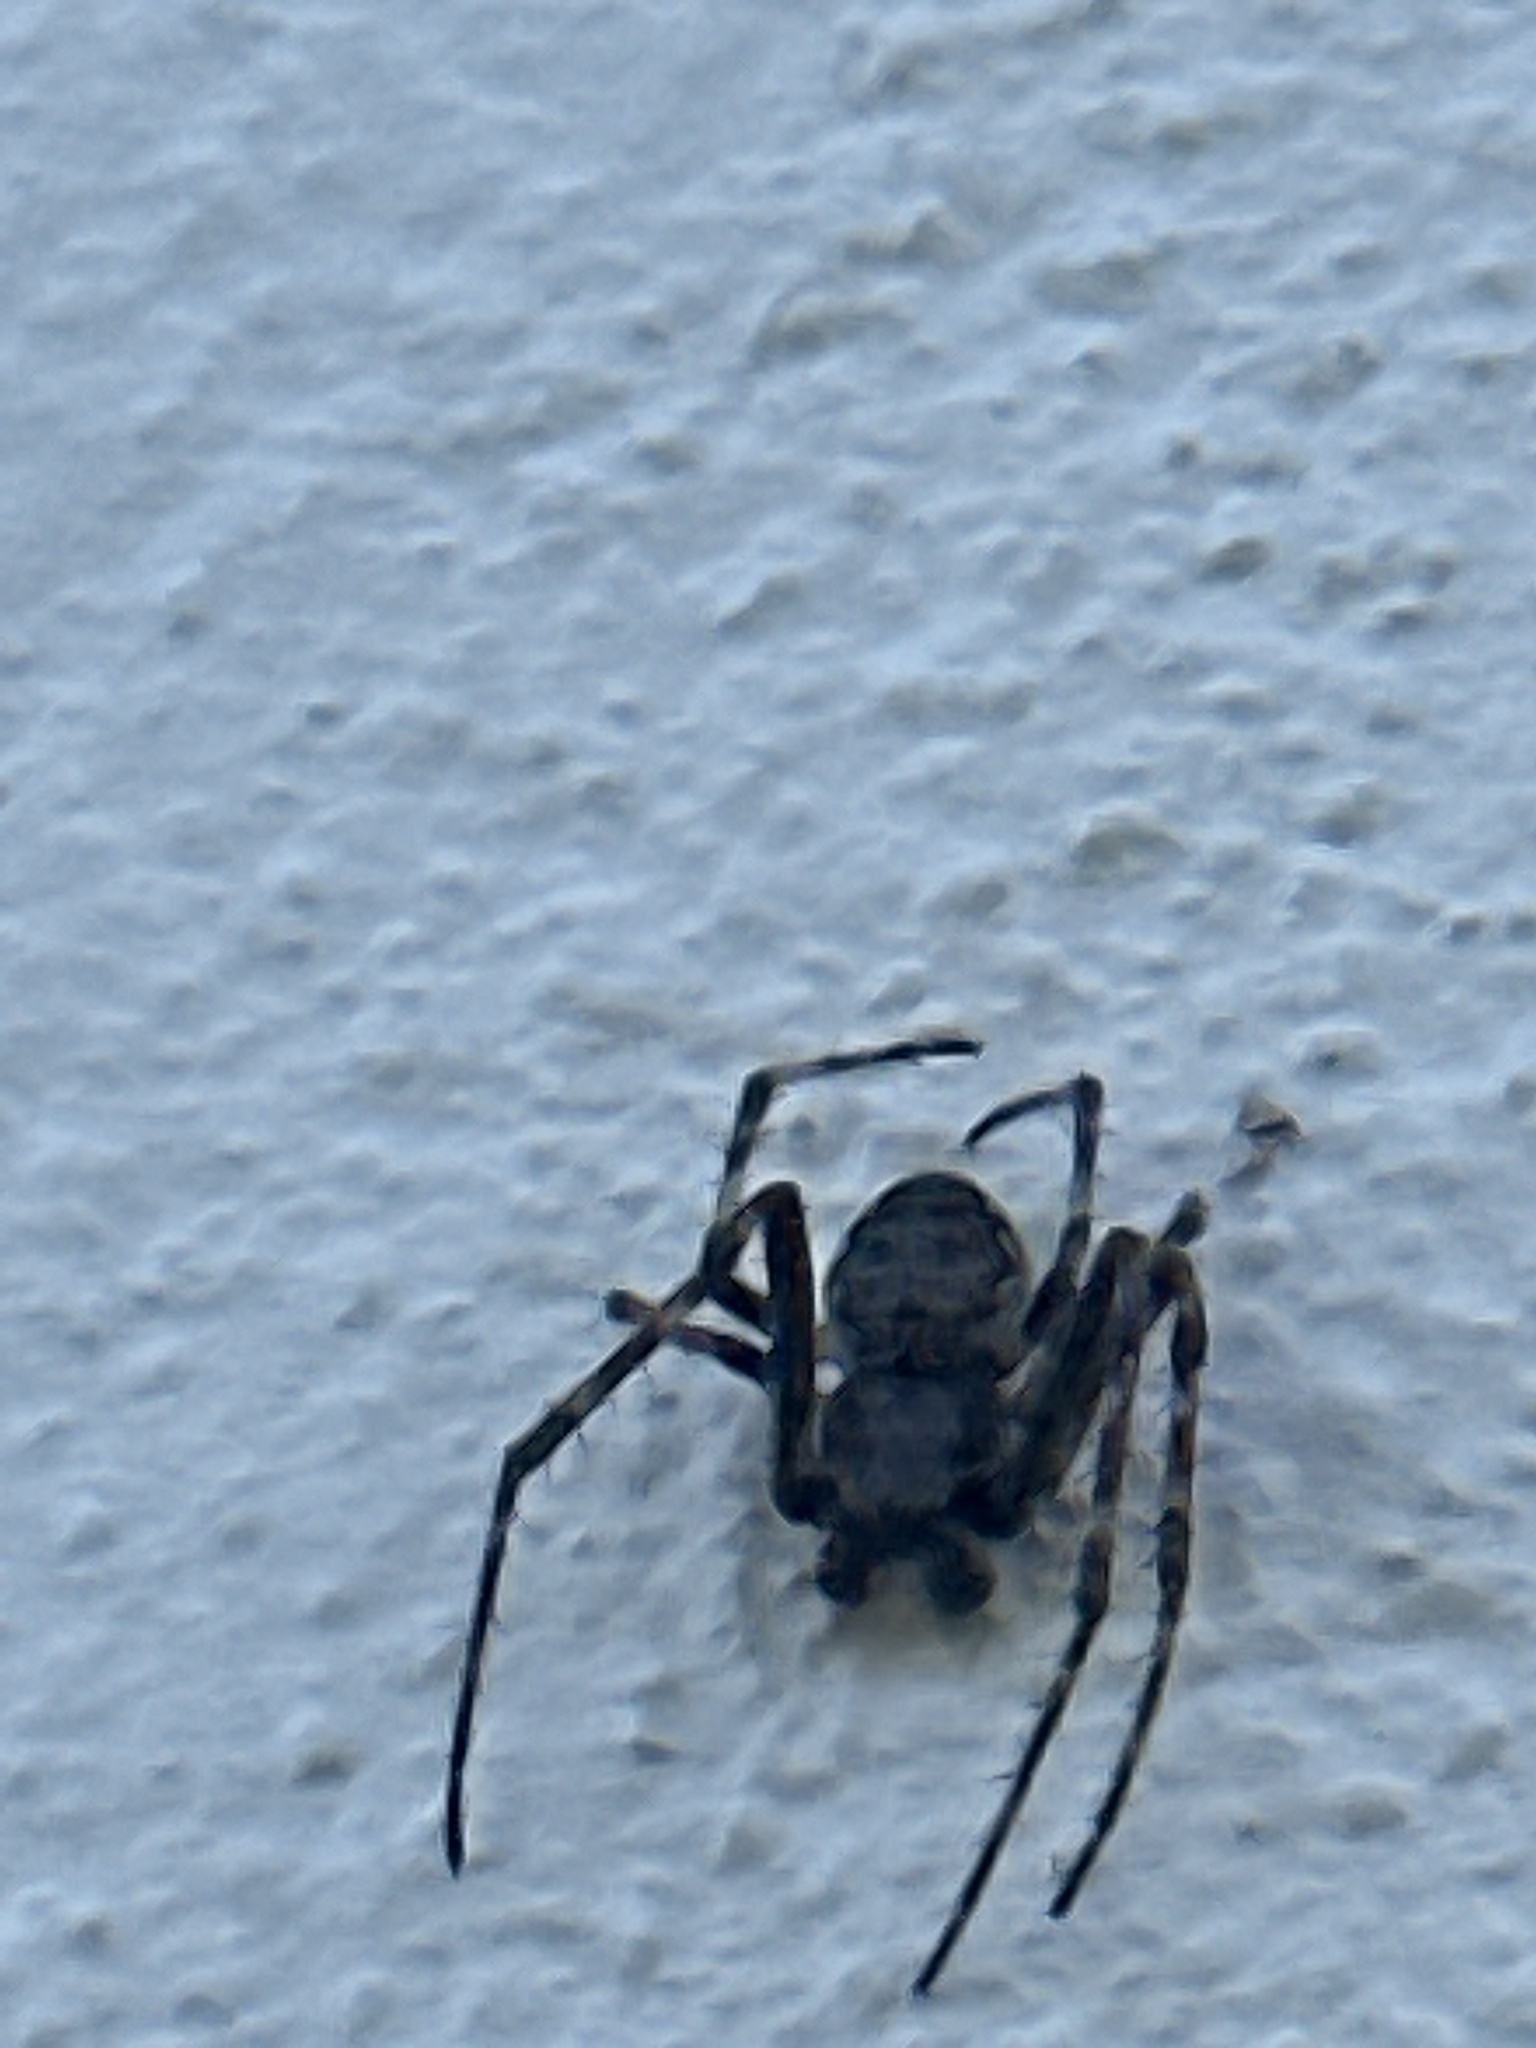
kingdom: Animalia
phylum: Arthropoda
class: Arachnida
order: Araneae
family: Araneidae
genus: Nuctenea
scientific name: Nuctenea umbratica
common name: Toad spider
